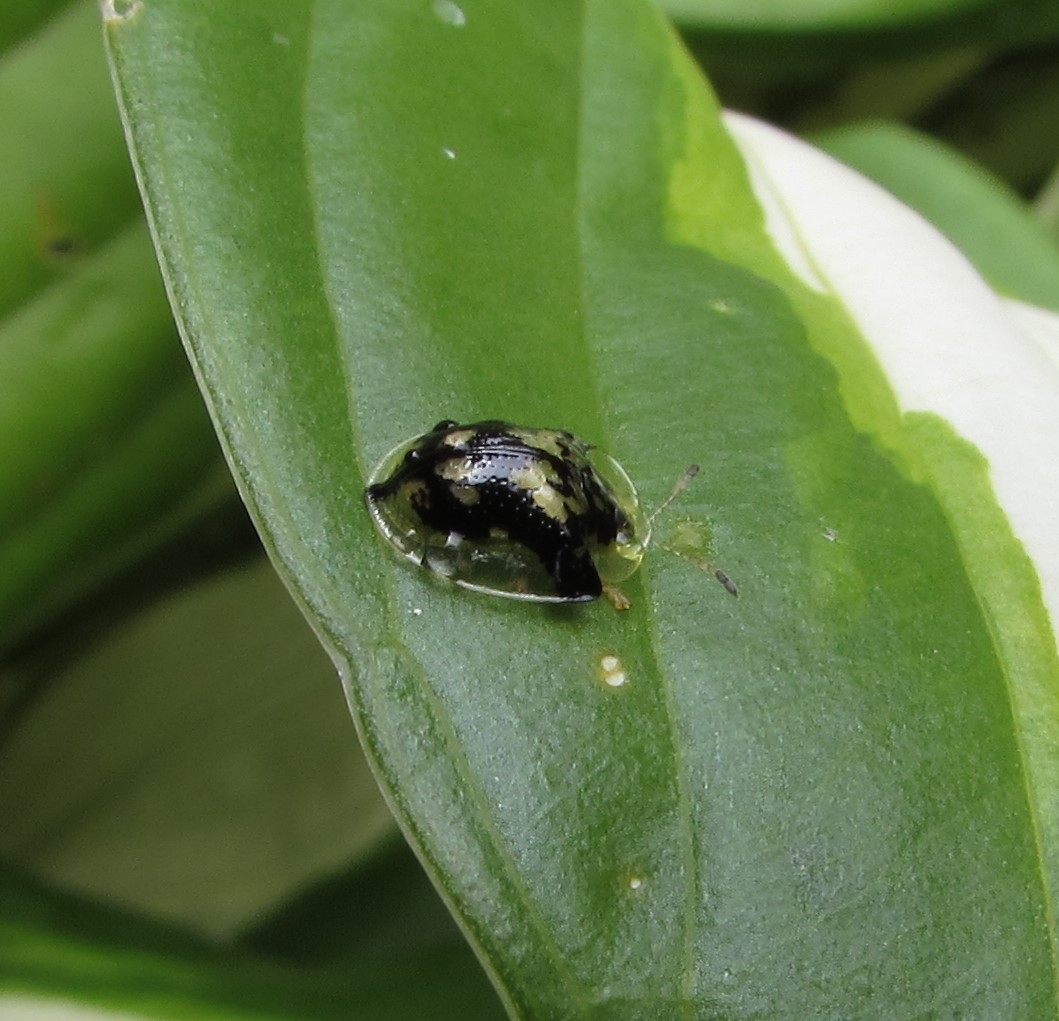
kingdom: Animalia
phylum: Arthropoda
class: Insecta
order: Coleoptera
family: Chrysomelidae
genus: Deloyala
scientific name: Deloyala guttata
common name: Mottled tortoise beetle
